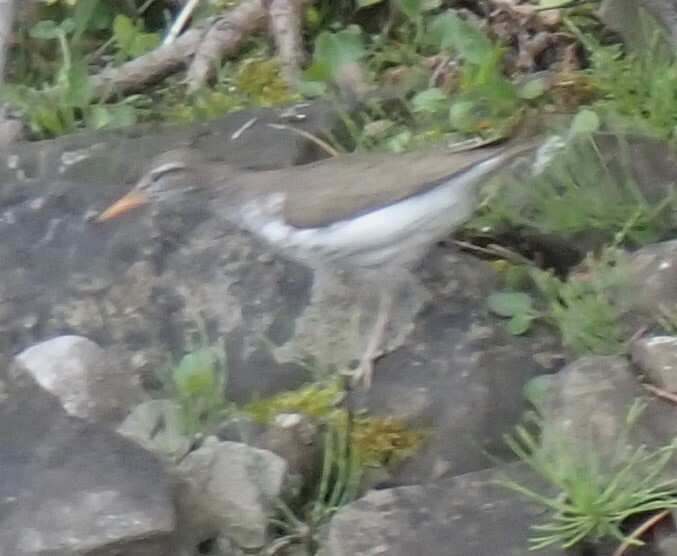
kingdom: Animalia
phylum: Chordata
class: Aves
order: Charadriiformes
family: Scolopacidae
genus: Actitis
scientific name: Actitis macularius
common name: Spotted sandpiper
